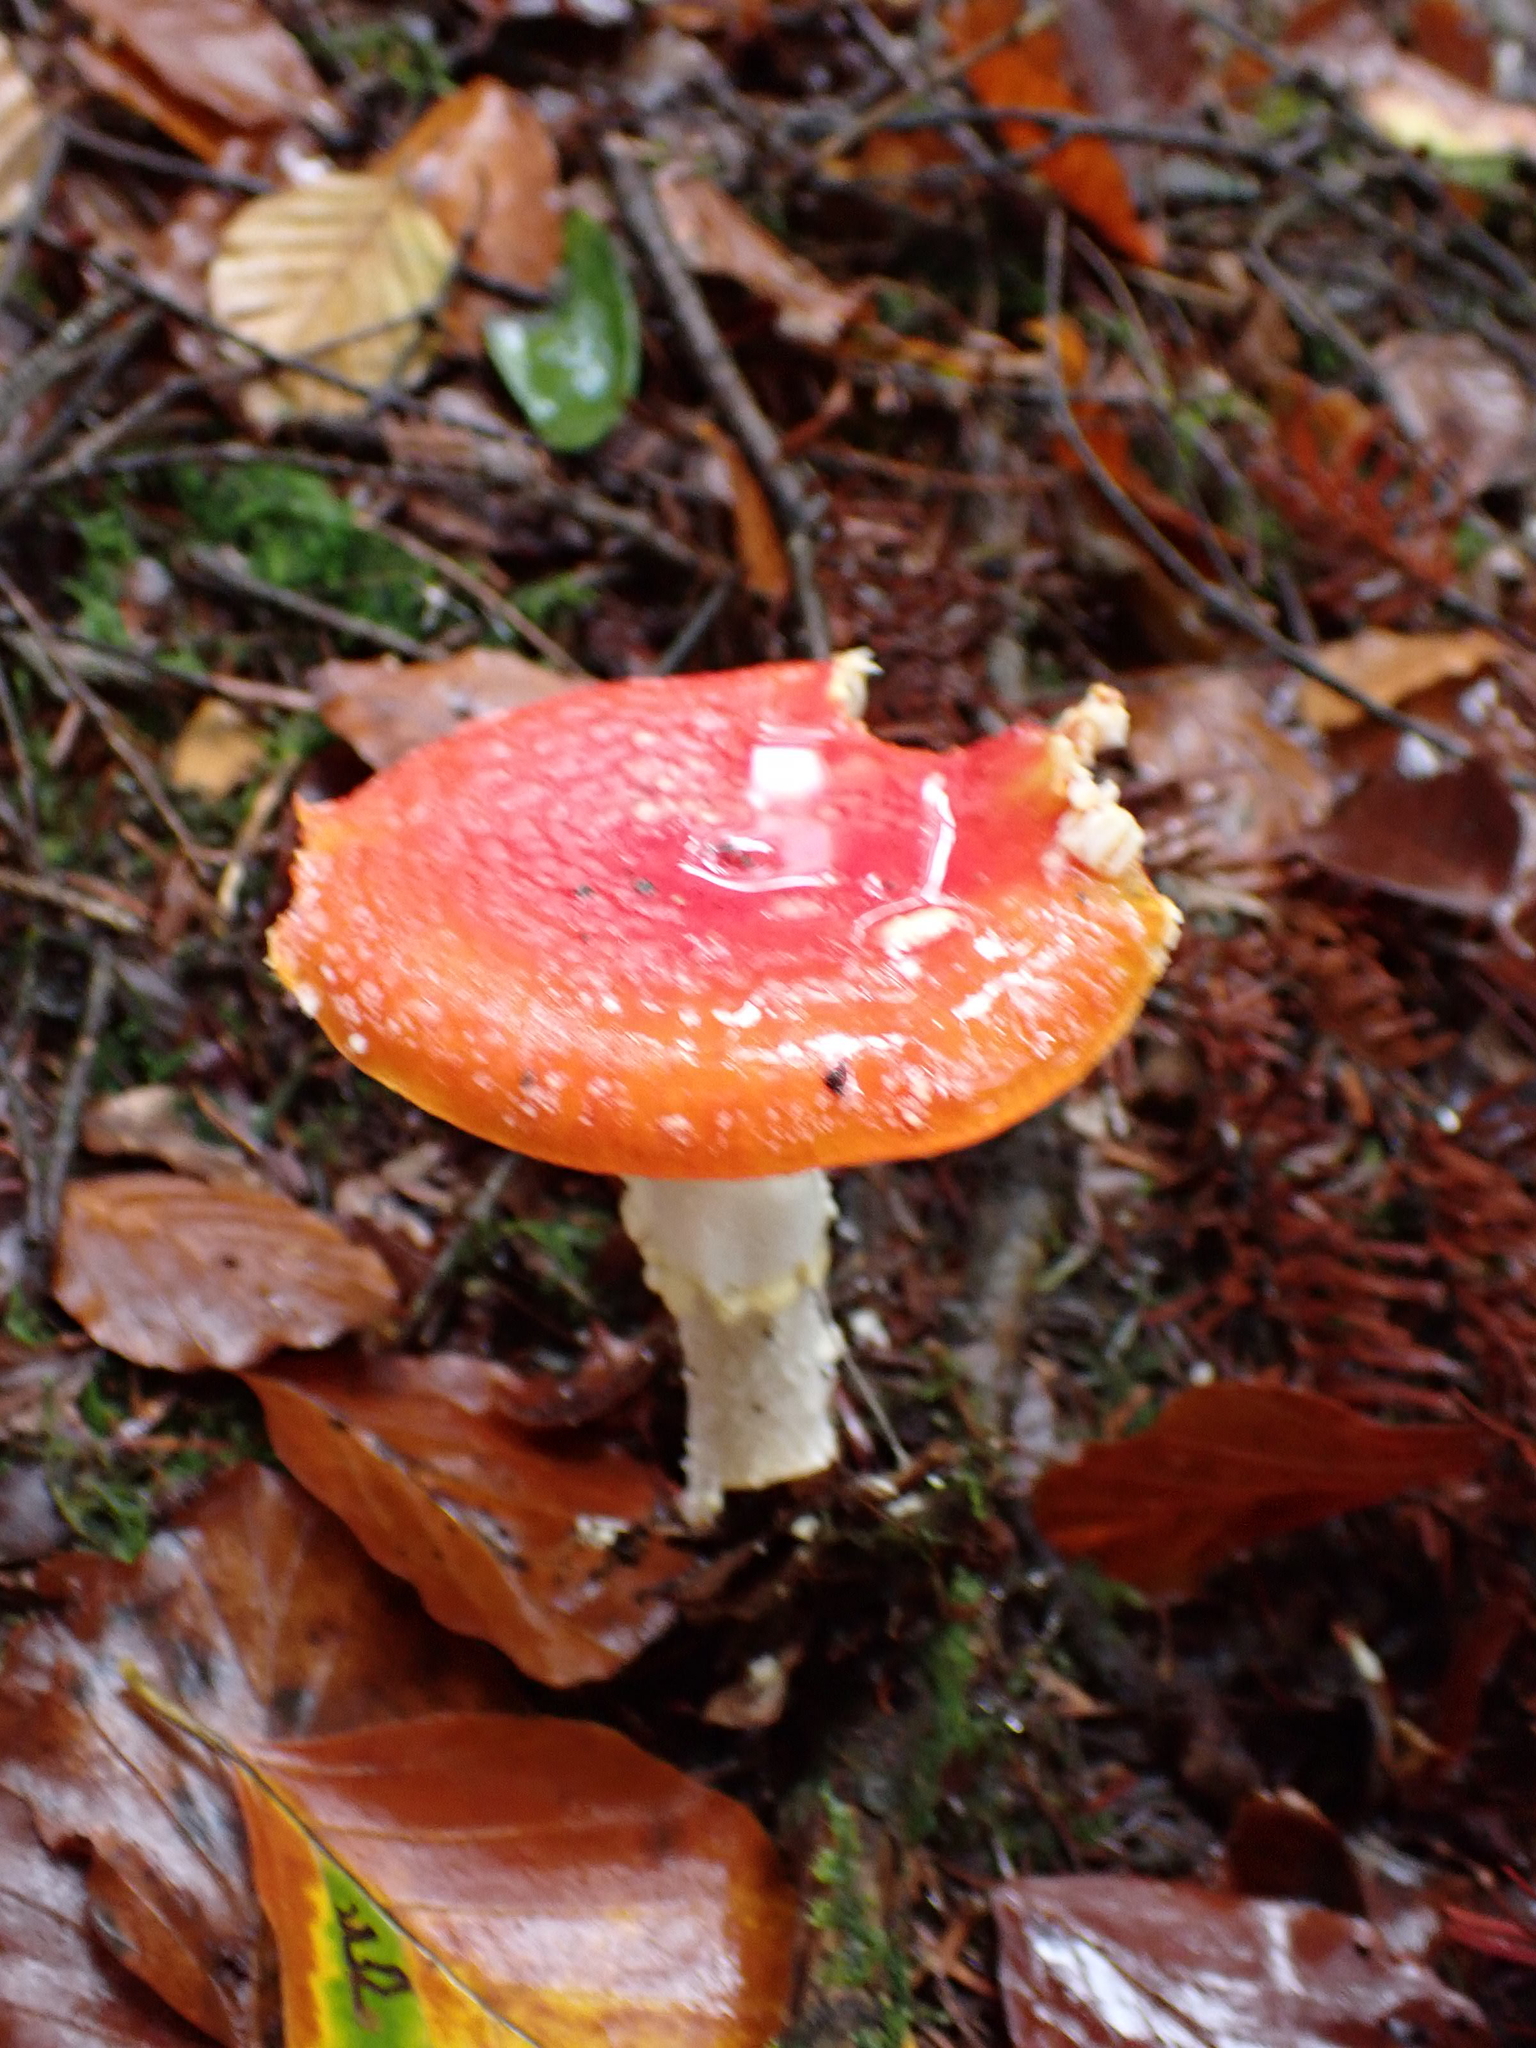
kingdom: Fungi
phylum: Basidiomycota
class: Agaricomycetes
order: Agaricales
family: Amanitaceae
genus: Amanita
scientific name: Amanita muscaria
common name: Fly agaric
